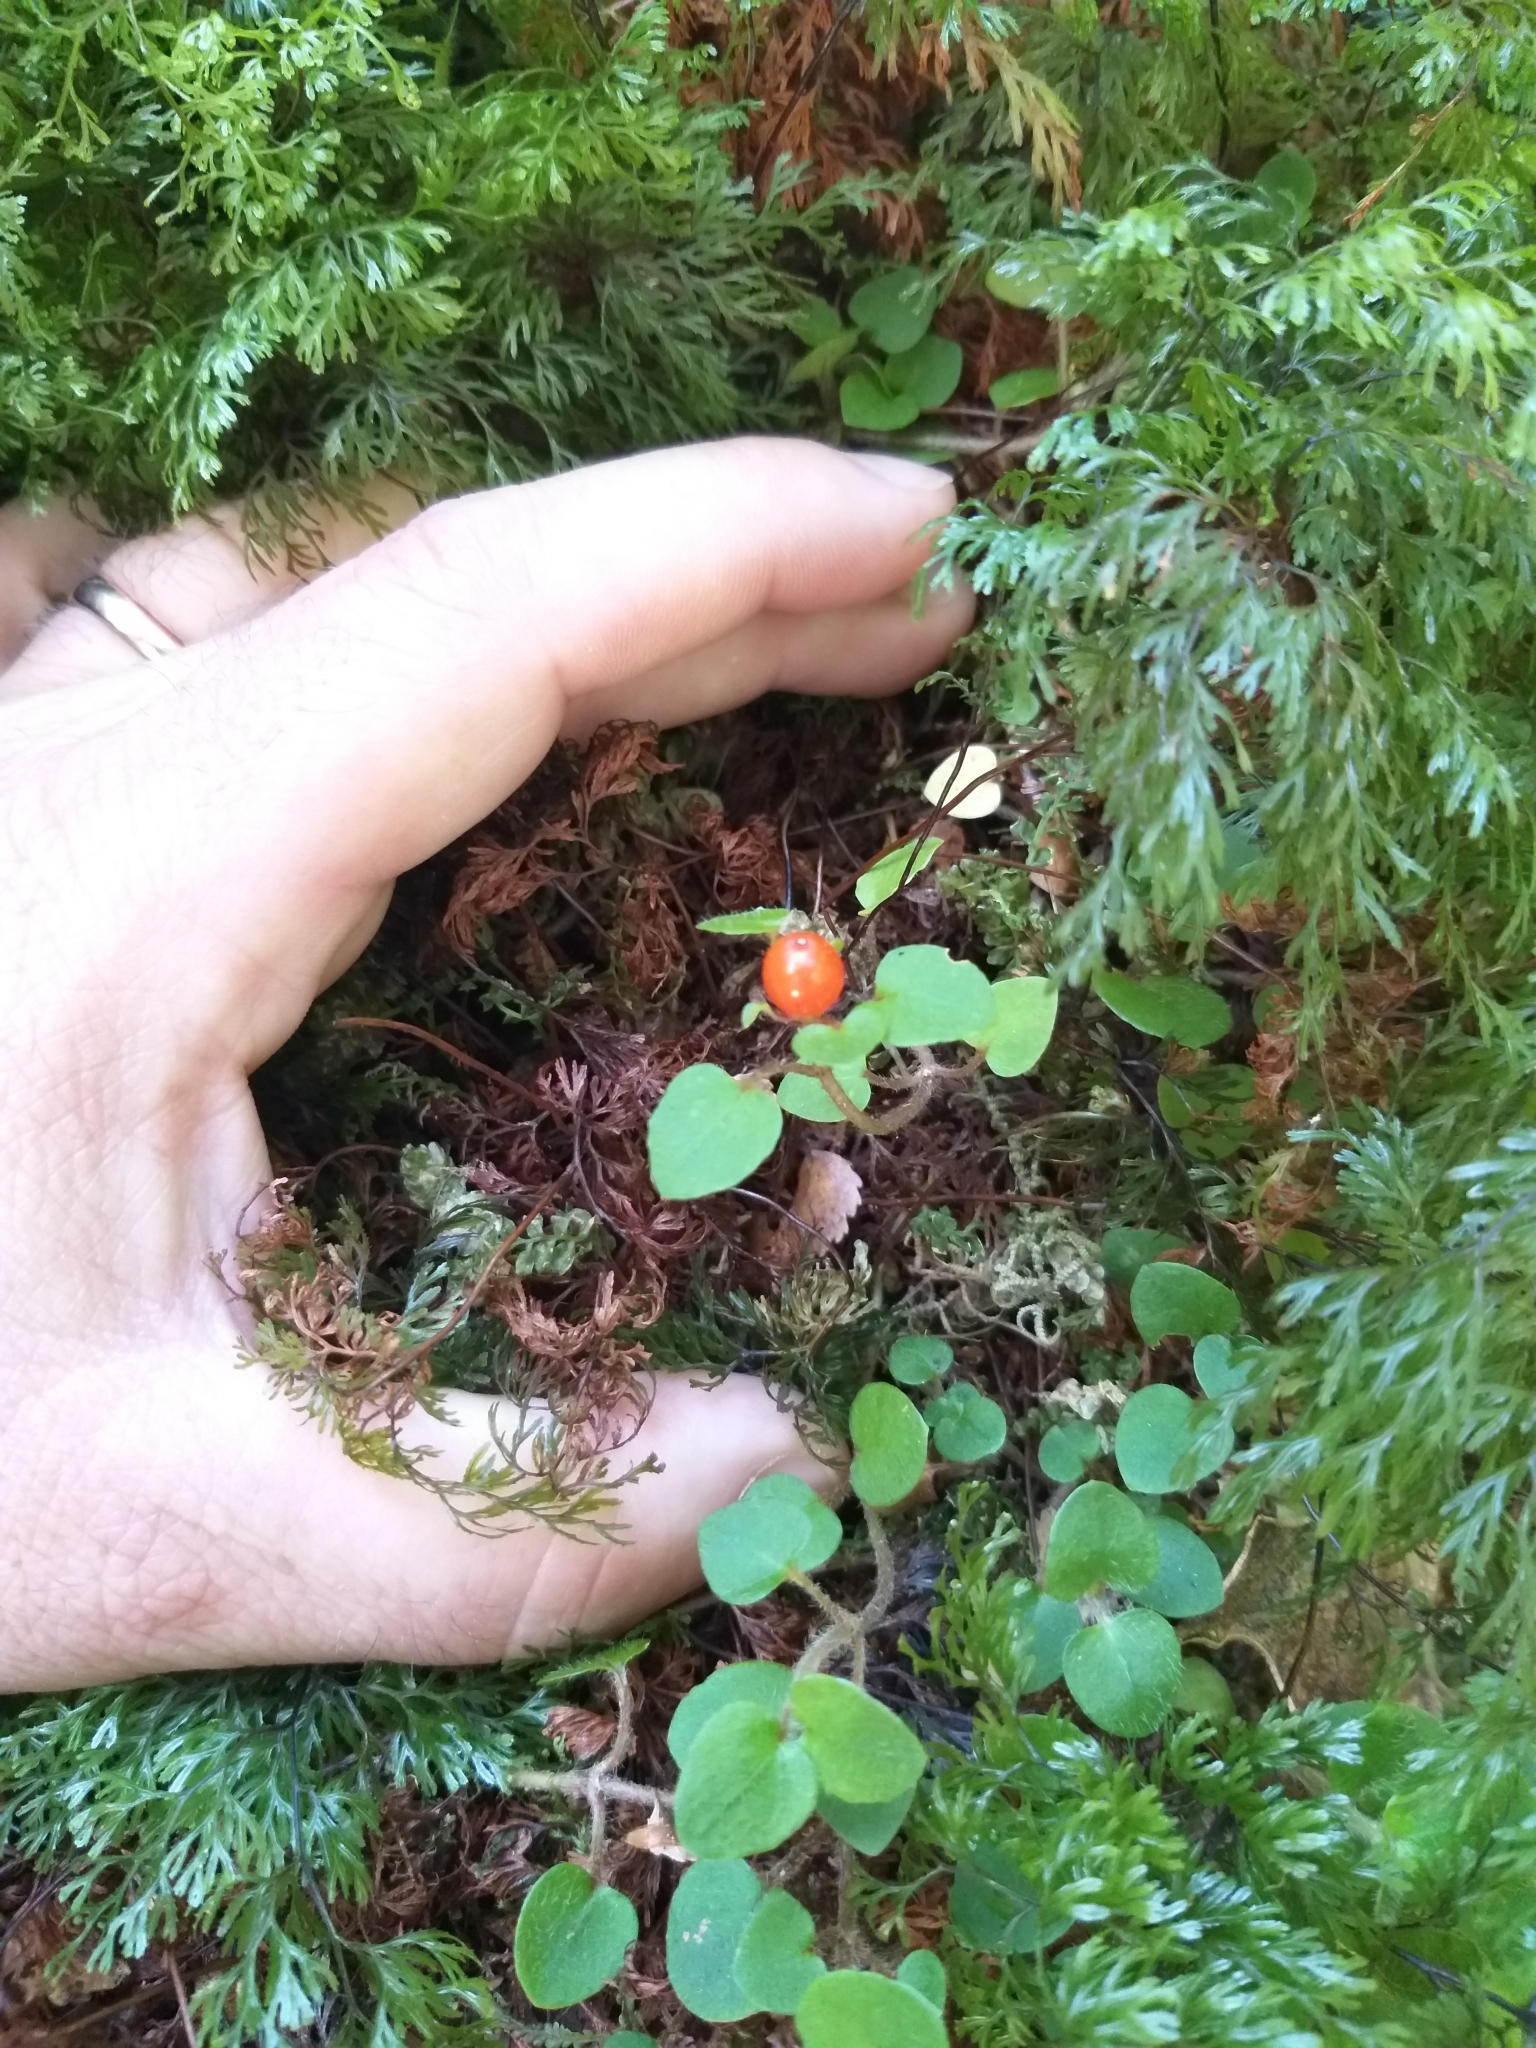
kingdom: Plantae
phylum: Tracheophyta
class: Magnoliopsida
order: Gentianales
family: Rubiaceae
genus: Nertera
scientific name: Nertera villosa
